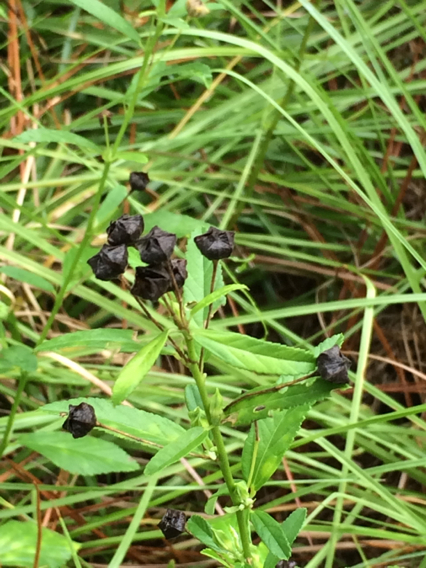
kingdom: Plantae
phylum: Tracheophyta
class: Magnoliopsida
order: Malvales
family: Malvaceae
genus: Sida
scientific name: Sida rhombifolia
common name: Queensland-hemp
